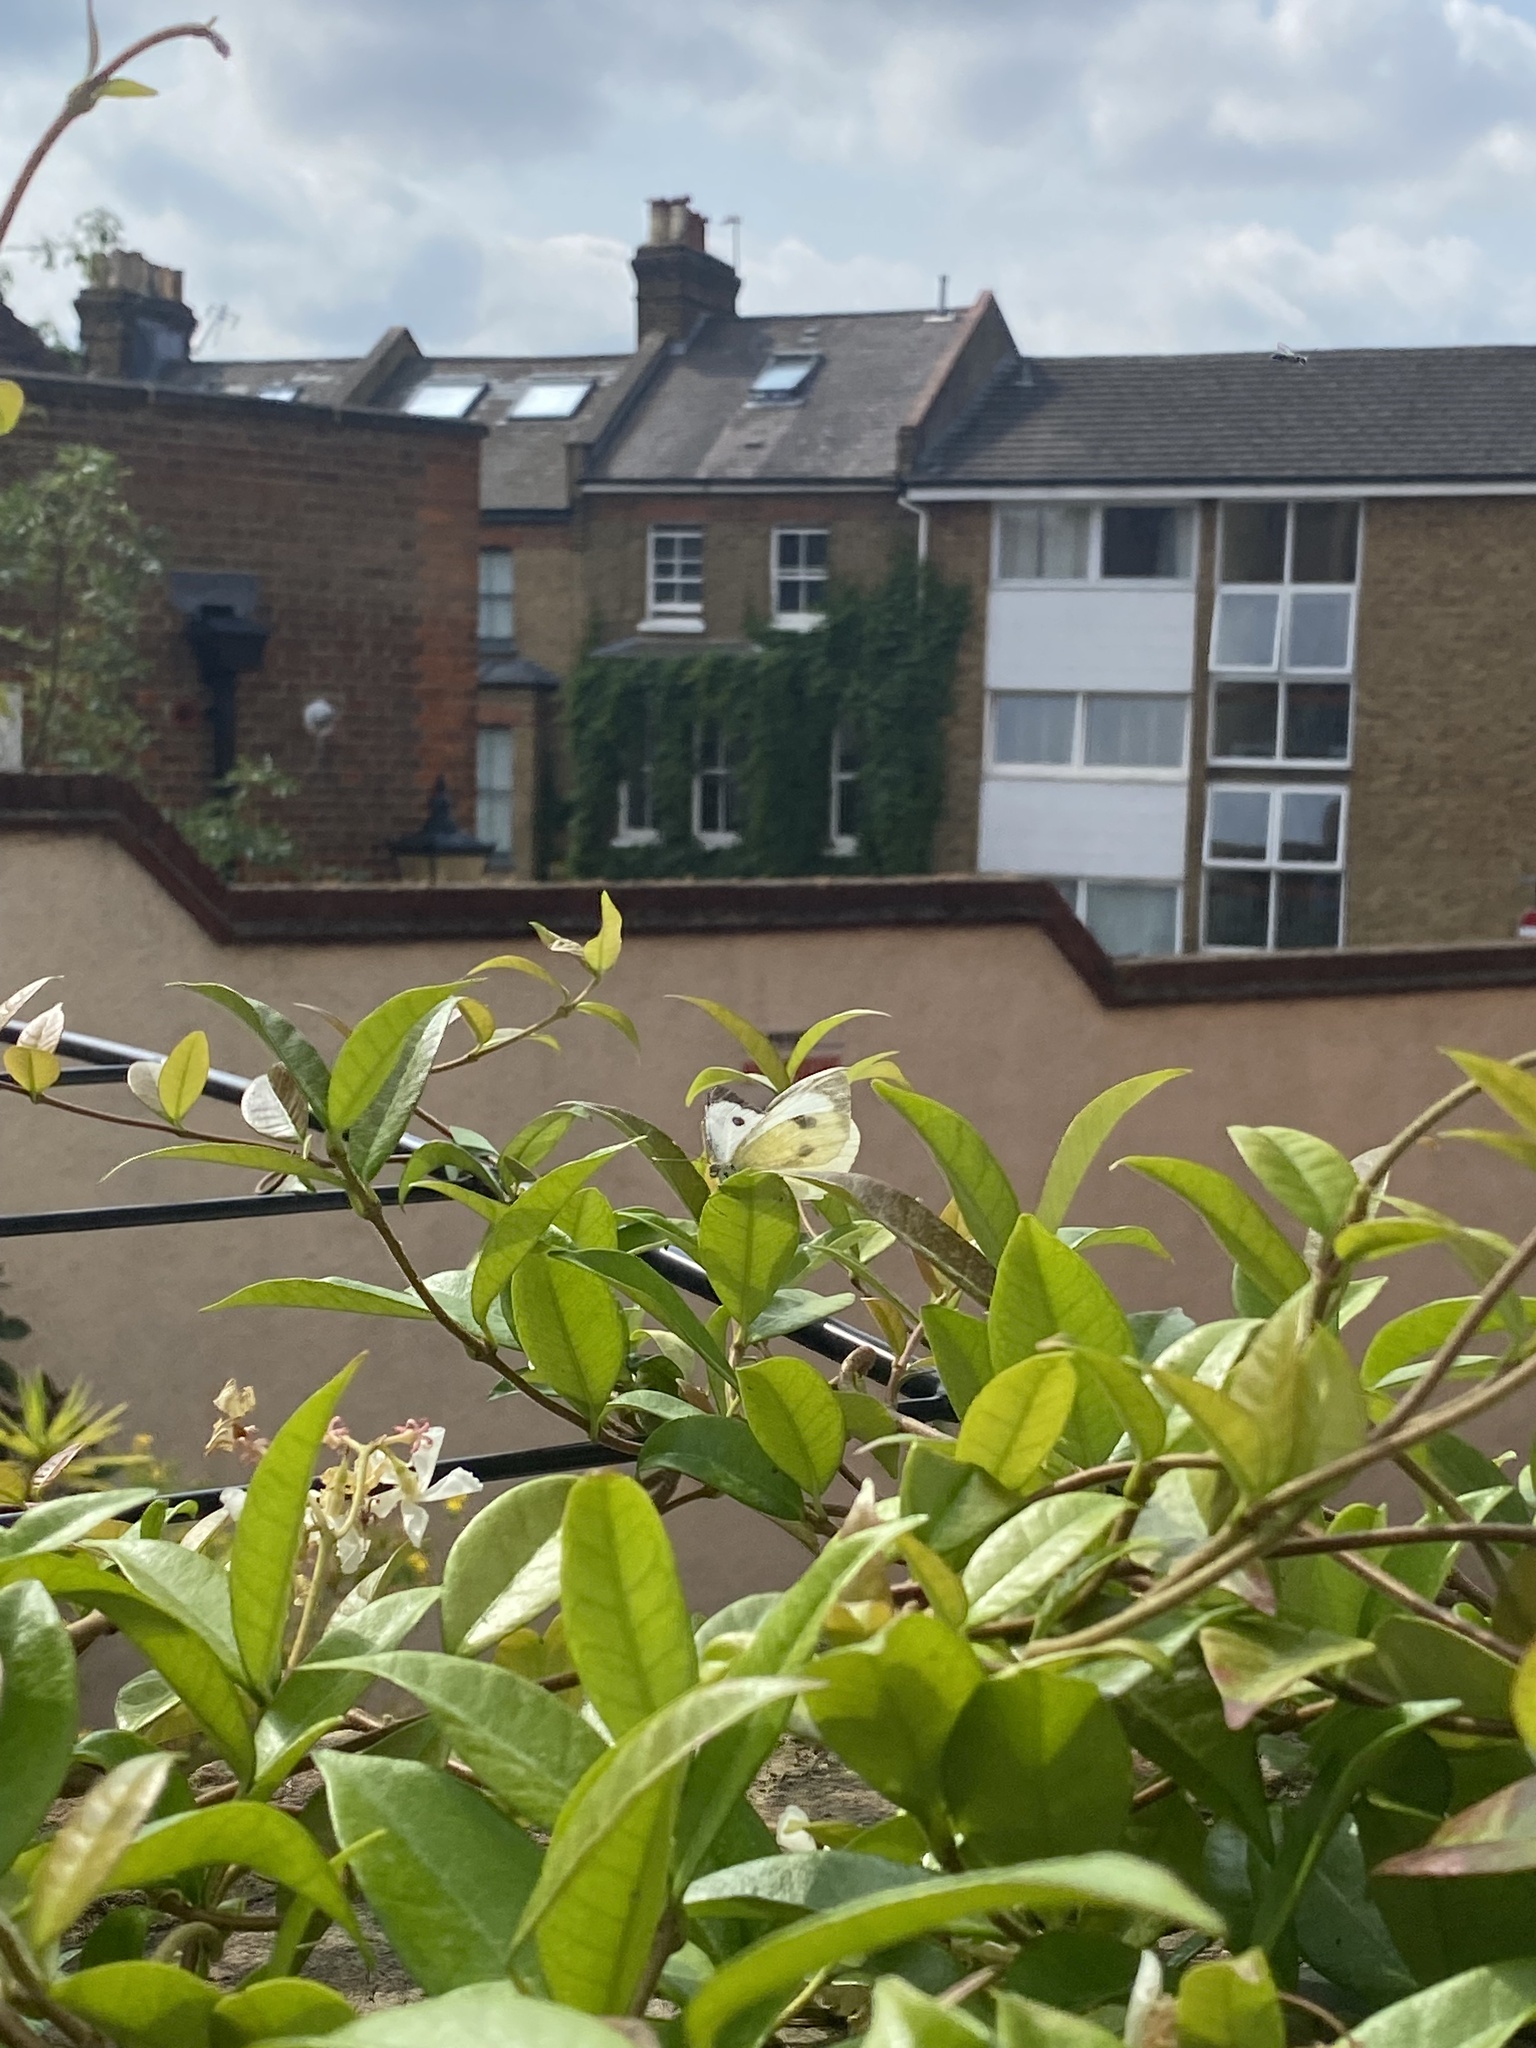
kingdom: Animalia
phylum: Arthropoda
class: Insecta
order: Lepidoptera
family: Pieridae
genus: Pieris
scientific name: Pieris brassicae
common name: Large white
